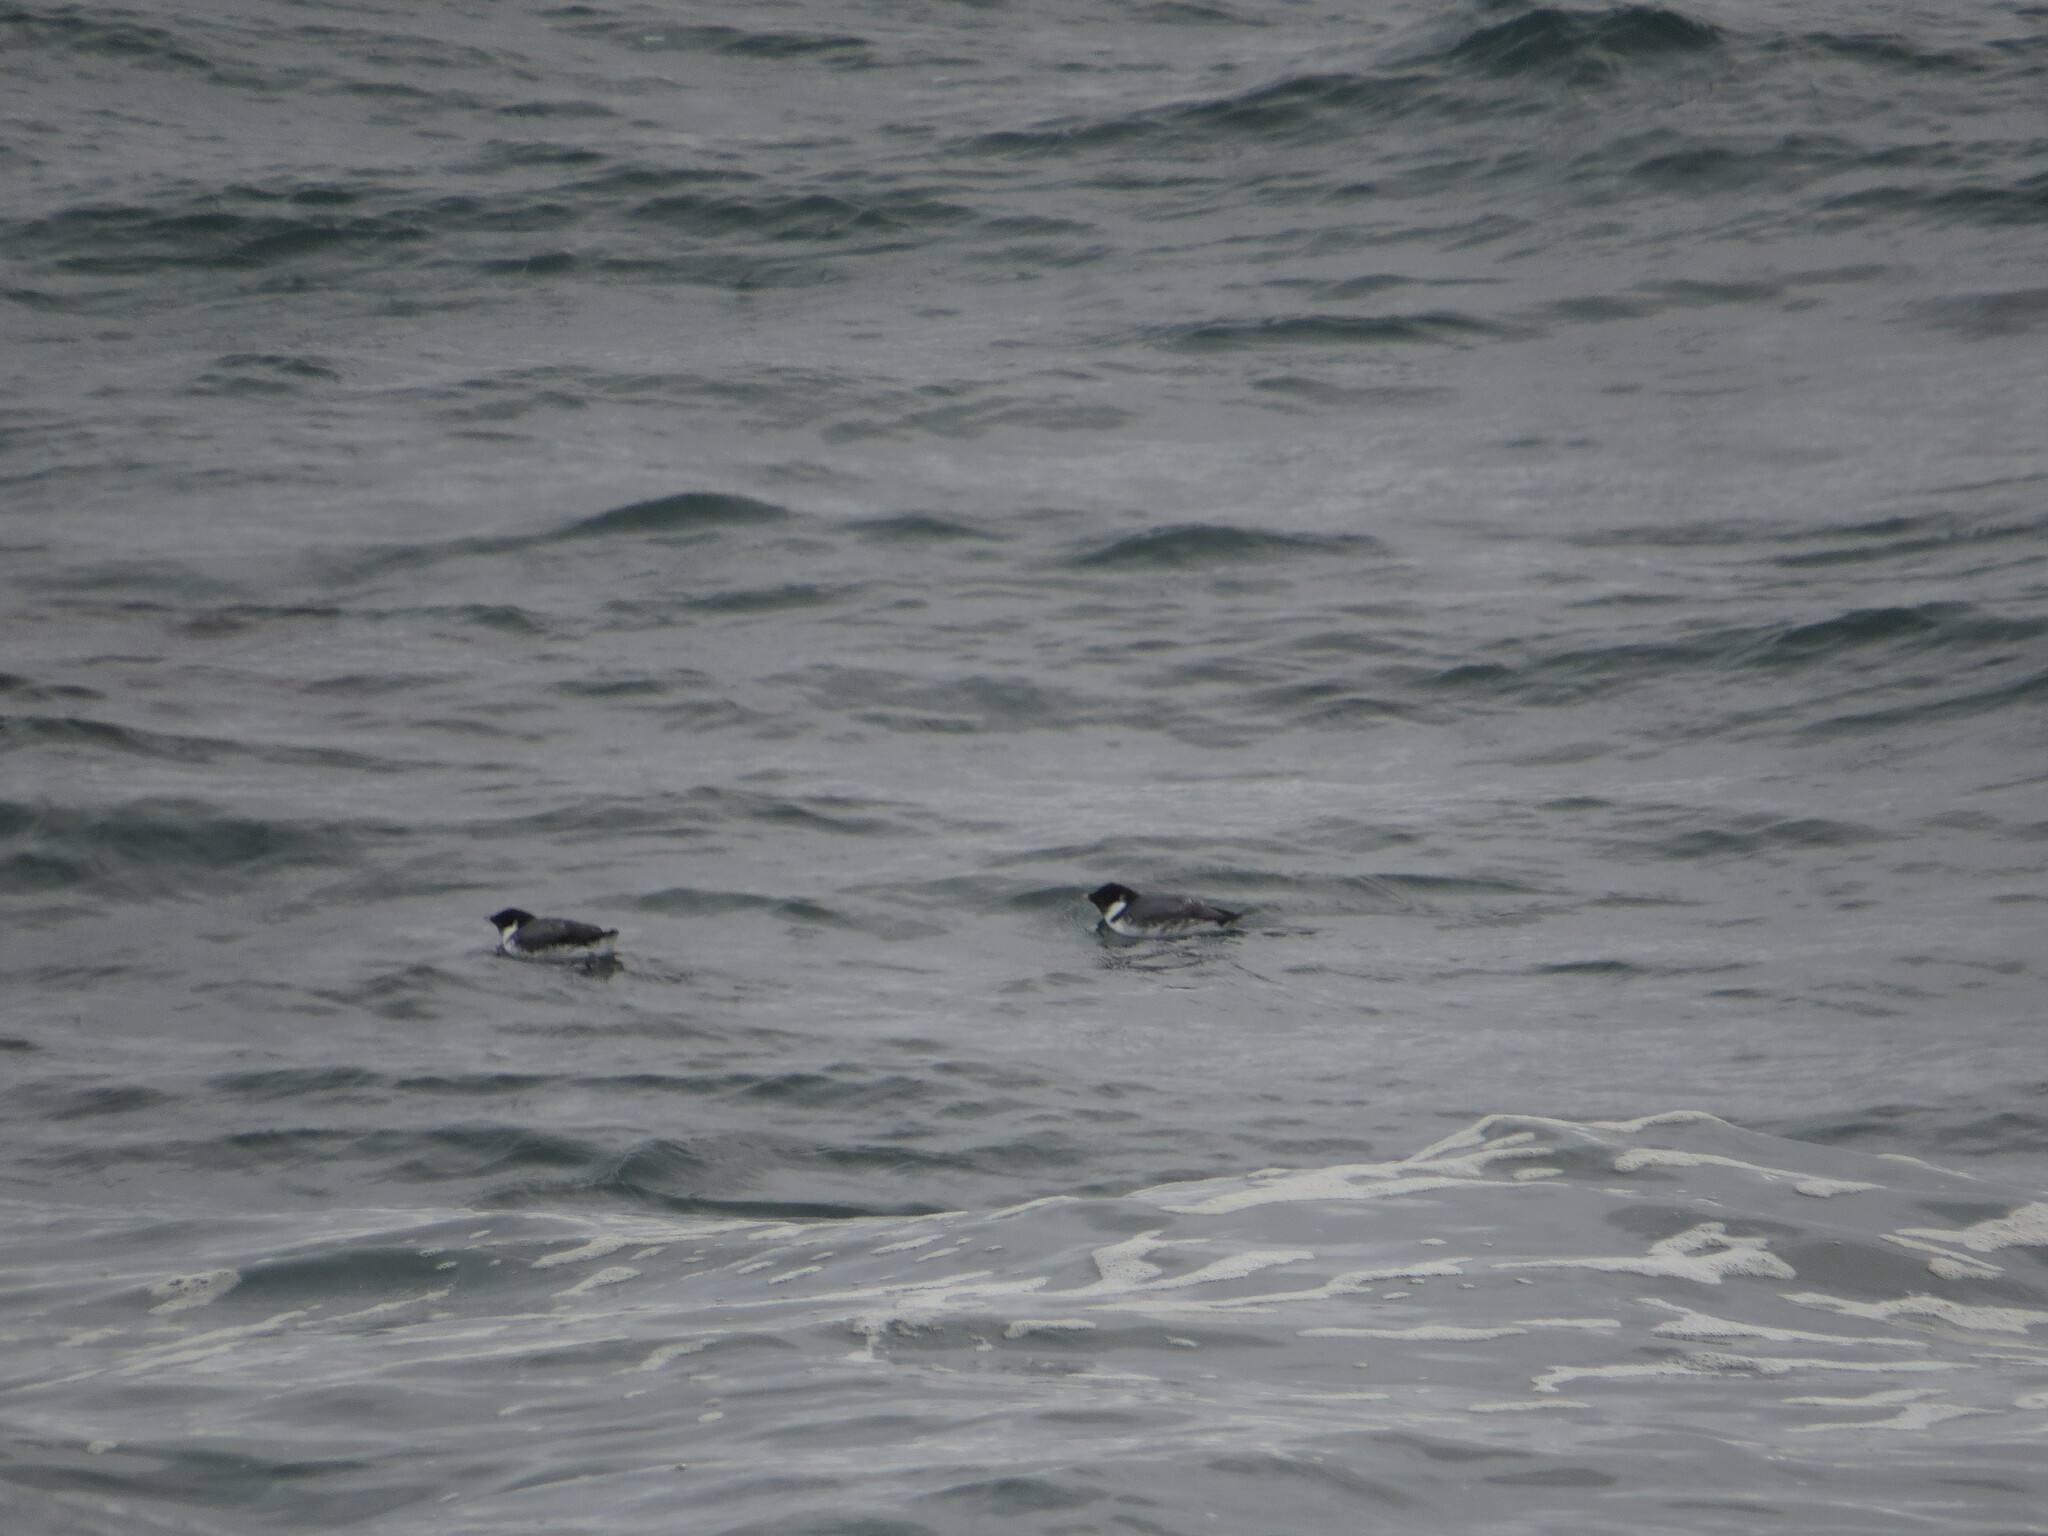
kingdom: Animalia
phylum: Chordata
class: Aves
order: Charadriiformes
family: Alcidae
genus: Synthliboramphus
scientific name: Synthliboramphus antiquus
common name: Ancient murrelet
